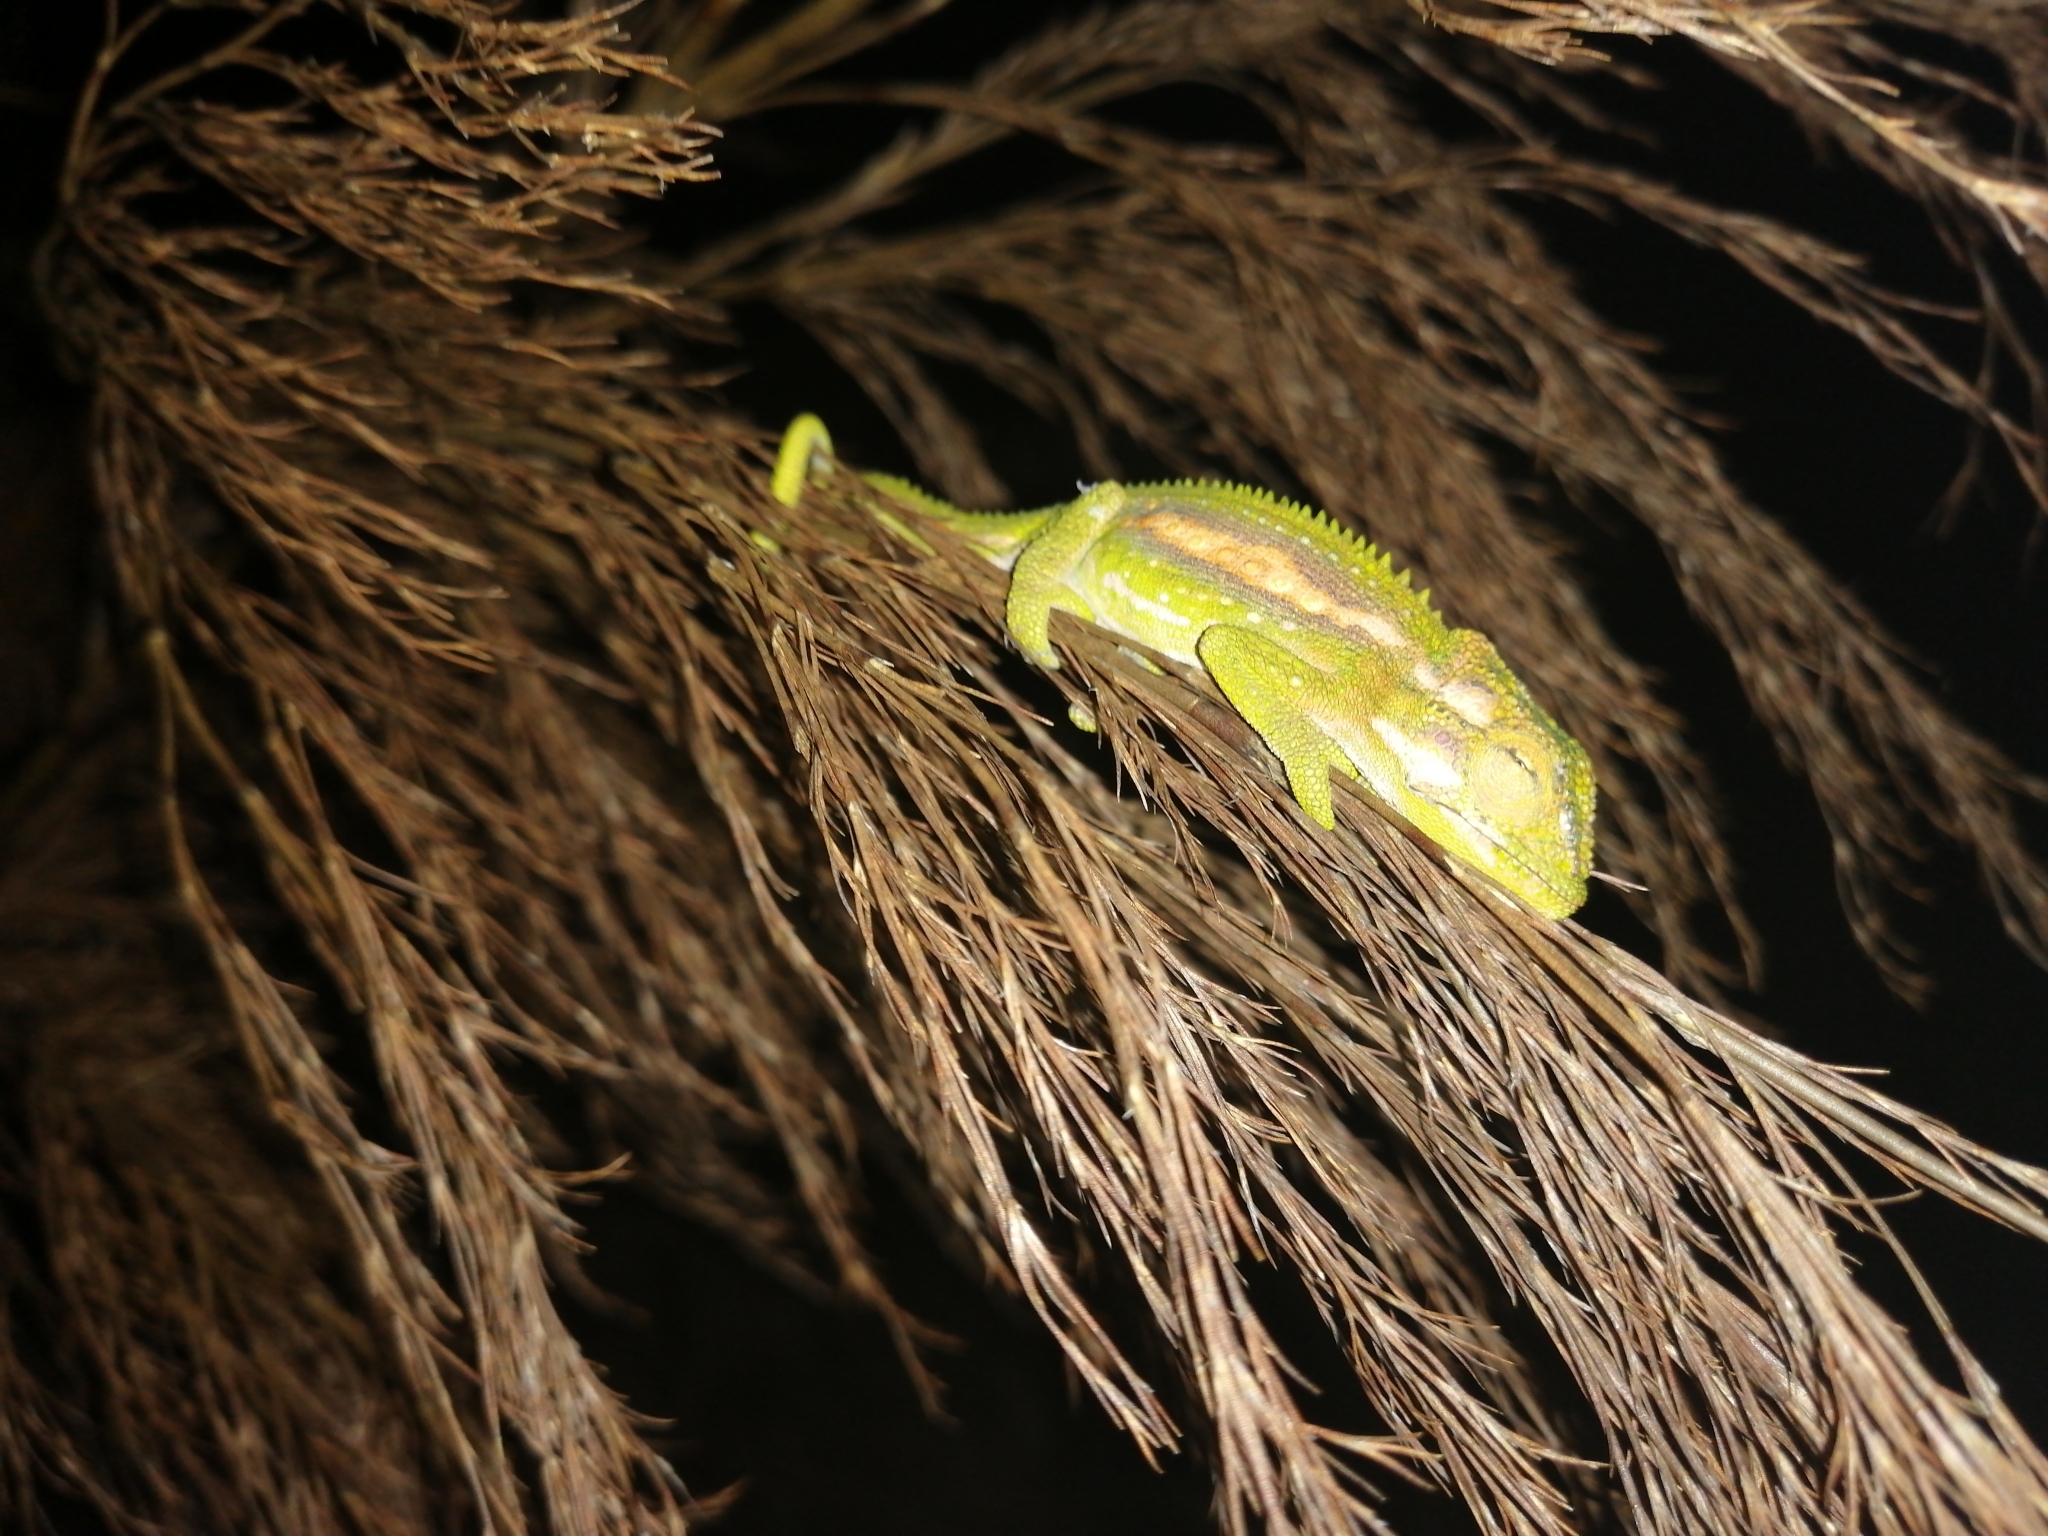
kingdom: Animalia
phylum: Chordata
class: Squamata
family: Chamaeleonidae
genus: Bradypodion
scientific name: Bradypodion pumilum
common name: Cape dwarf chameleon
